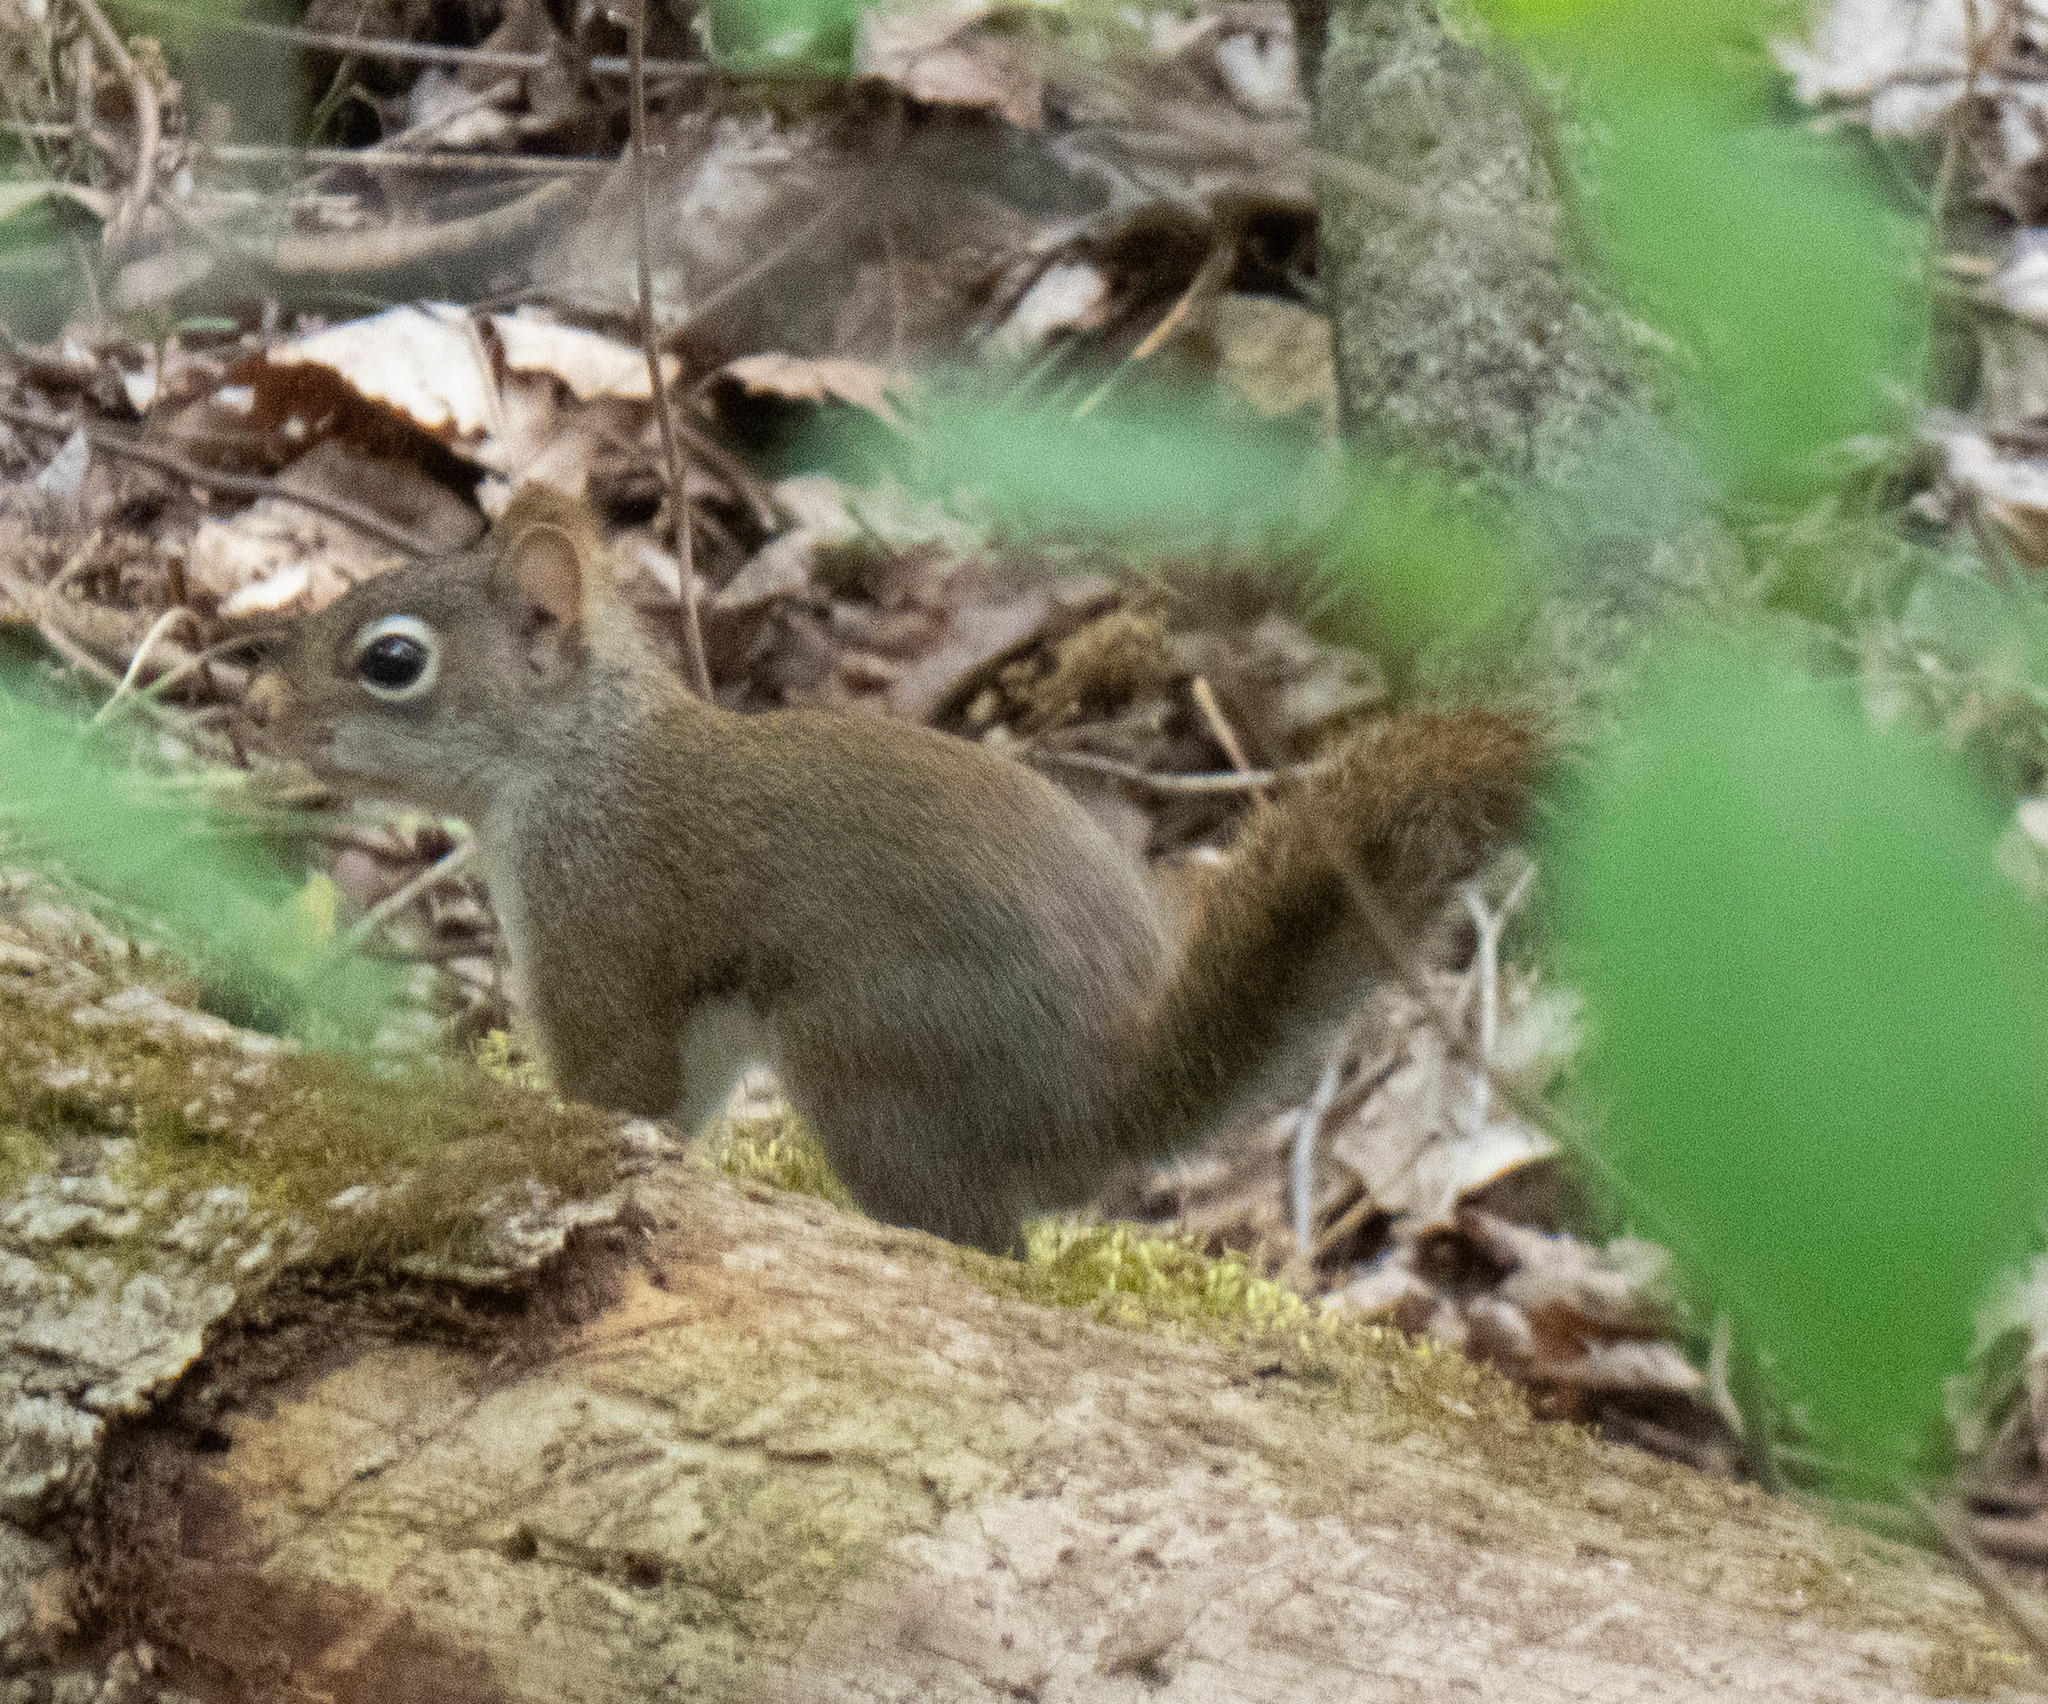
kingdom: Animalia
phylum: Chordata
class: Mammalia
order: Rodentia
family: Sciuridae
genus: Tamiasciurus
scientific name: Tamiasciurus hudsonicus
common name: Red squirrel
